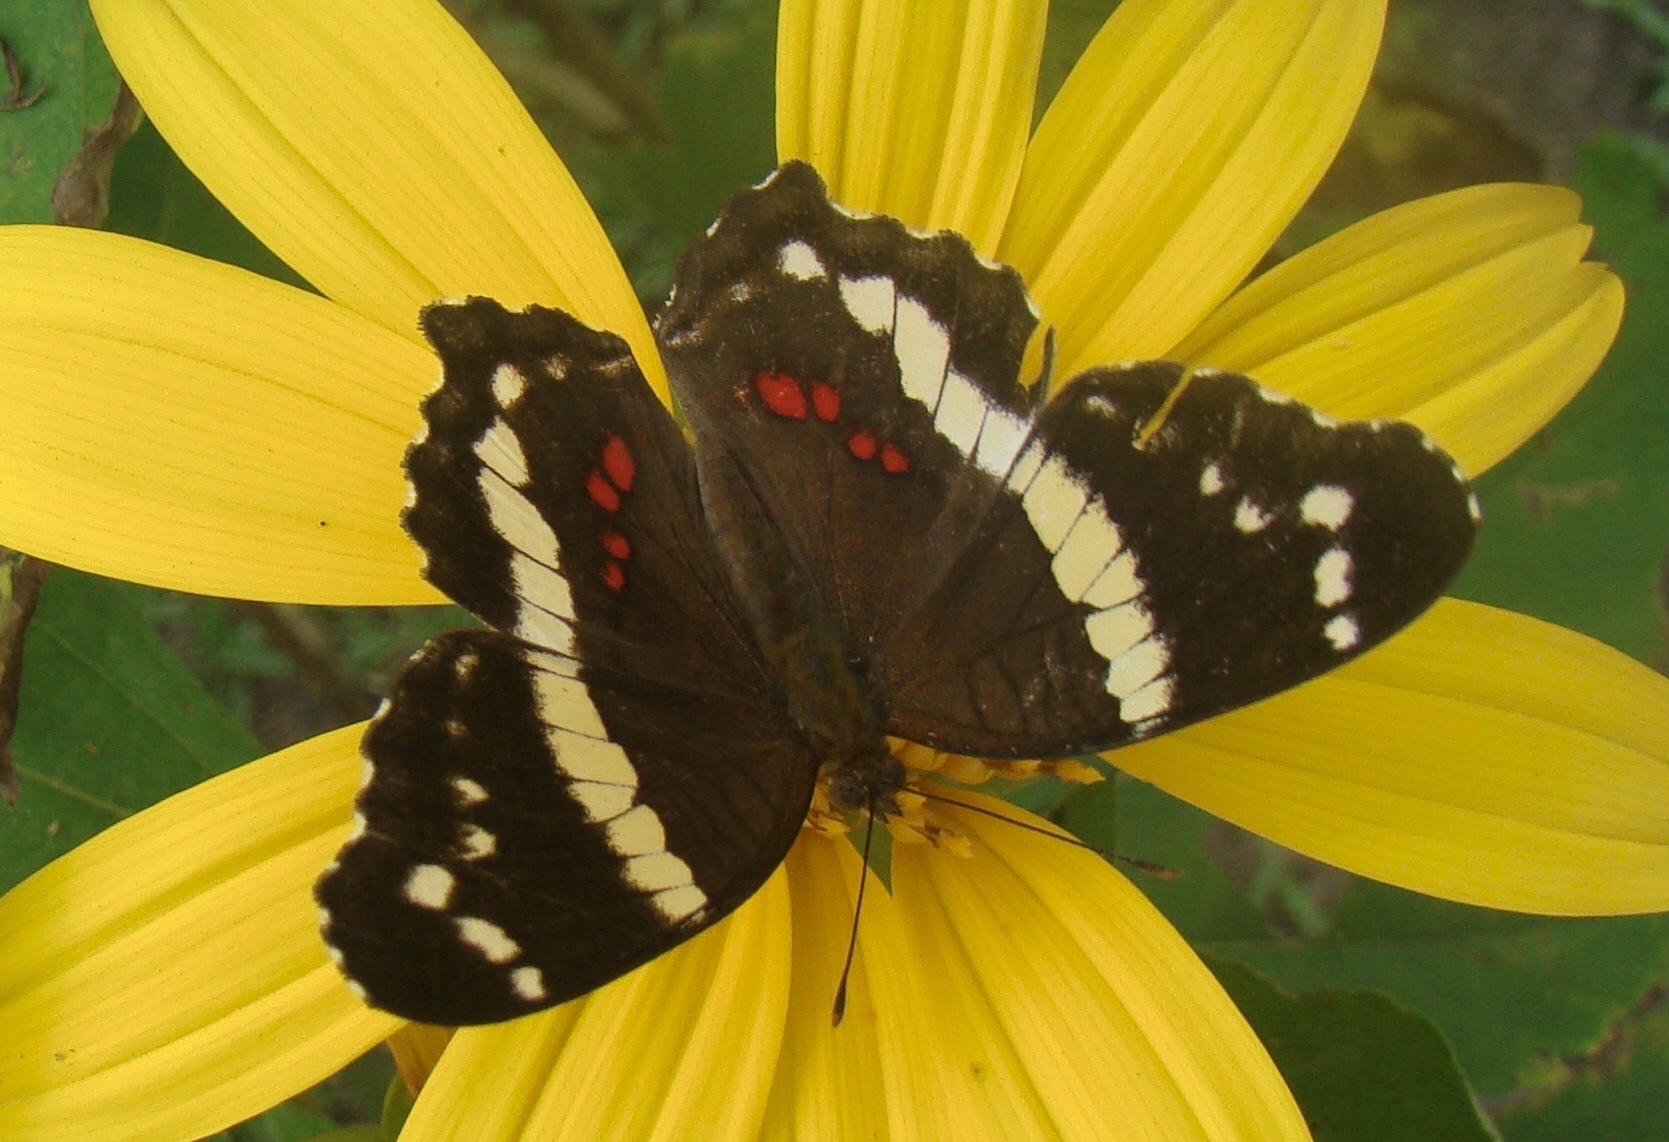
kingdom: Animalia
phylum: Arthropoda
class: Insecta
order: Lepidoptera
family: Nymphalidae
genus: Anartia
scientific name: Anartia fatima
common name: Banded peacock
